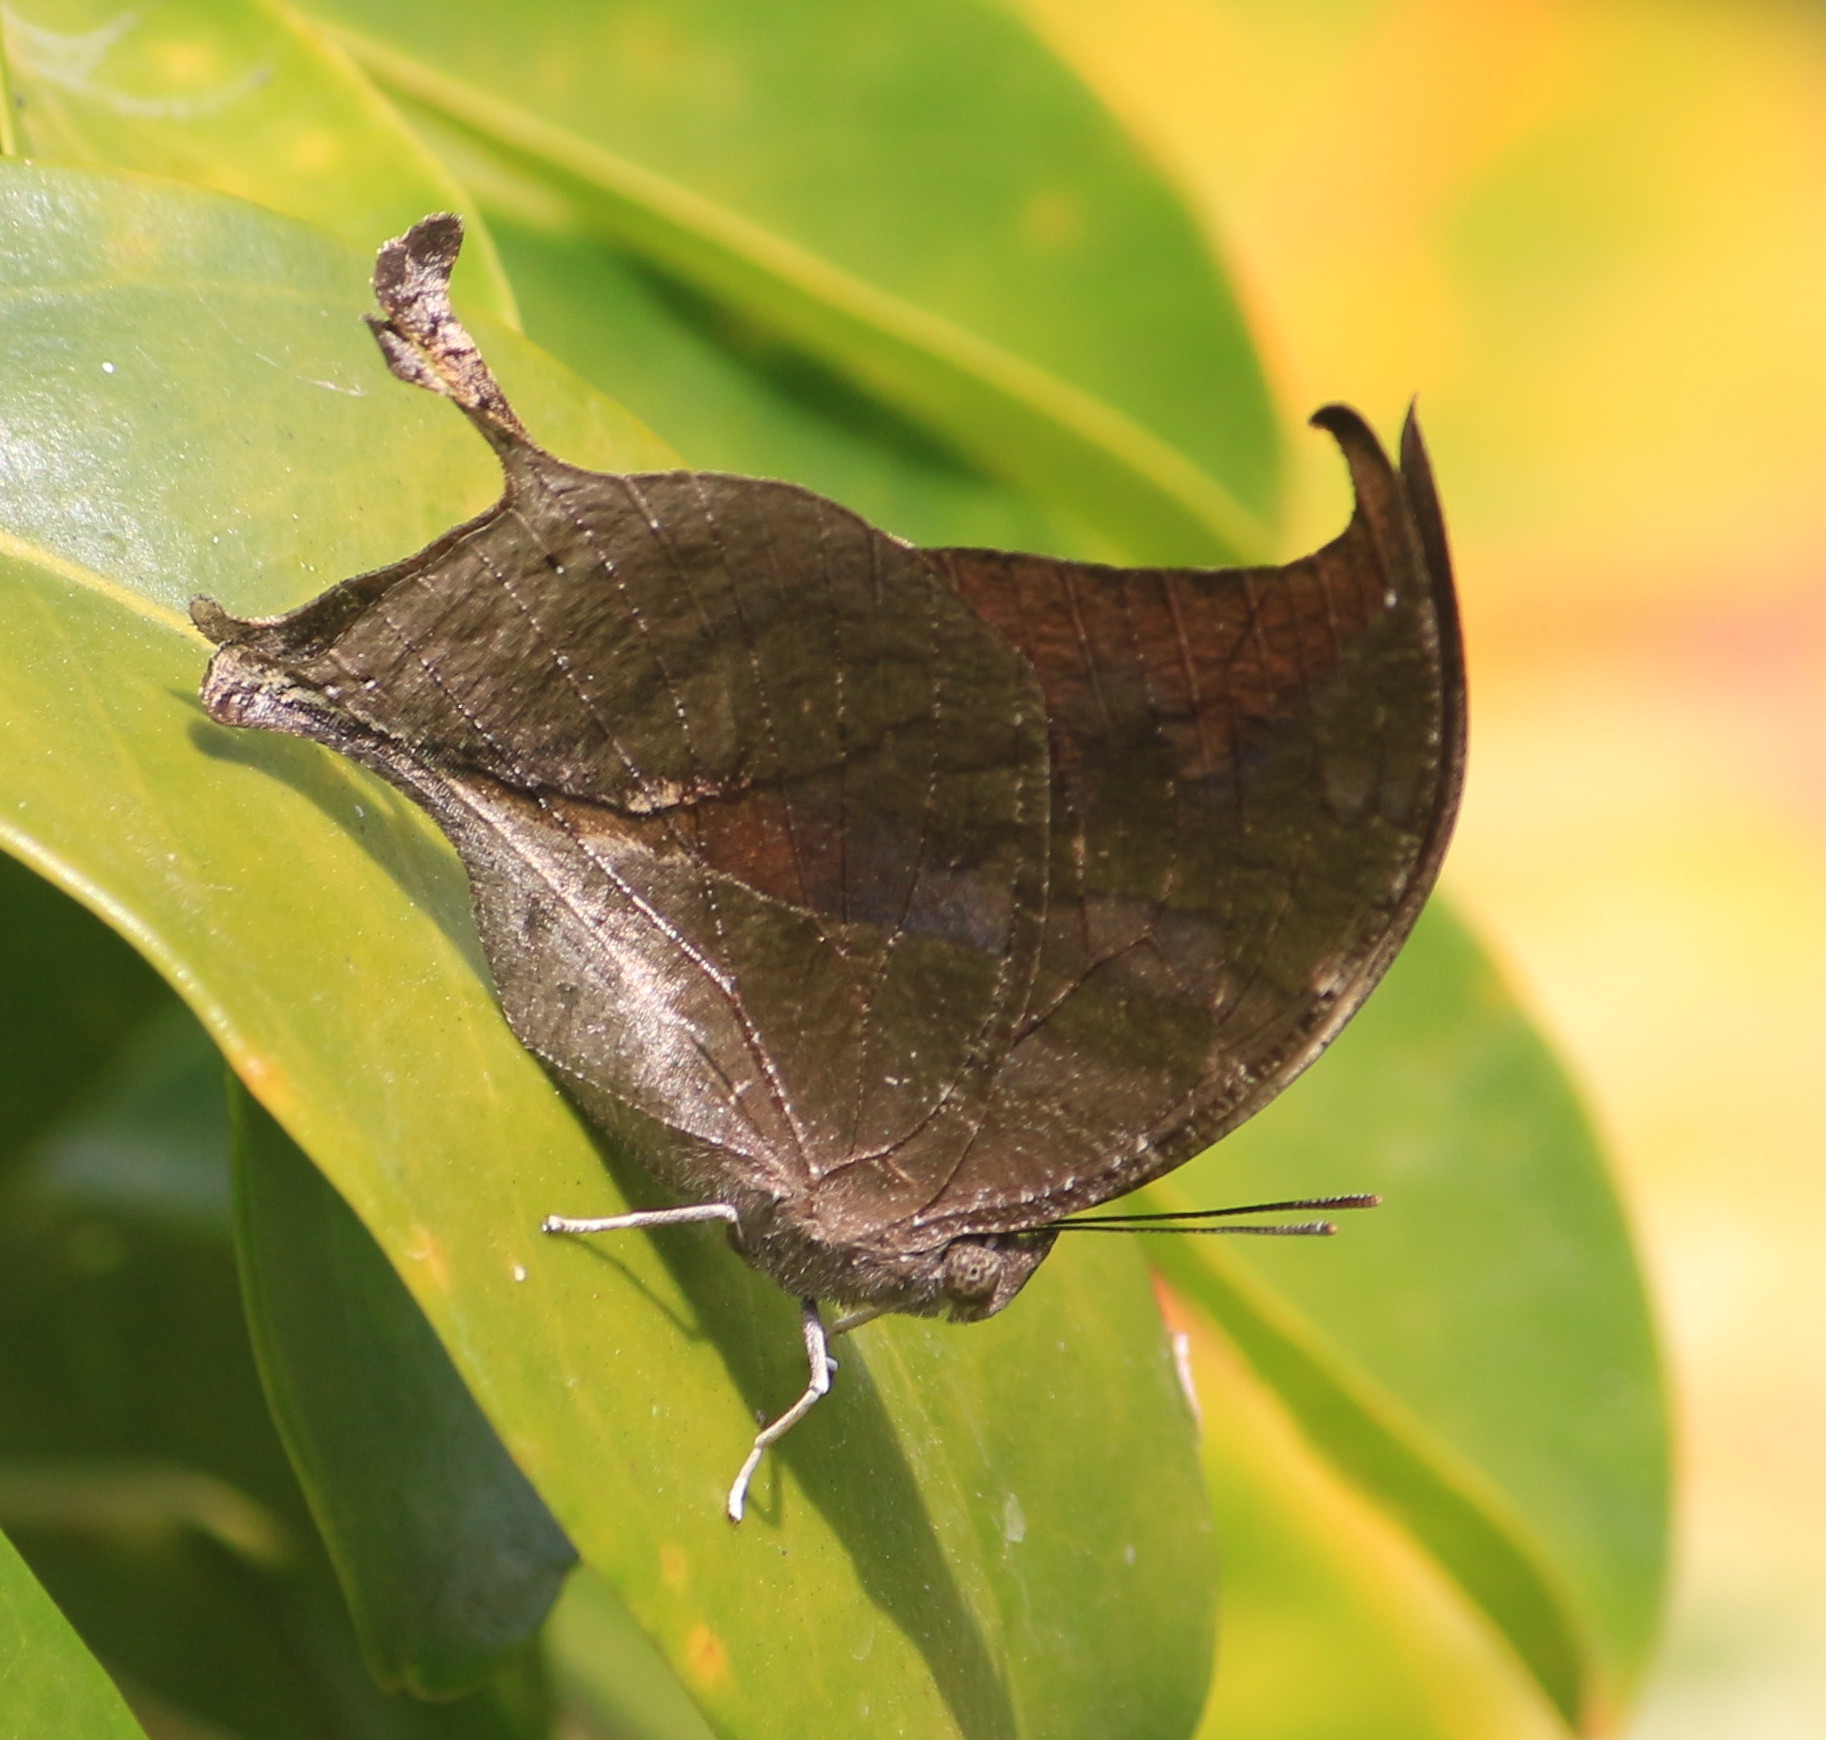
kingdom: Animalia
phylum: Arthropoda
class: Insecta
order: Lepidoptera
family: Nymphalidae
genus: Consul
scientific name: Consul electra
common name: Pearly leafwing
